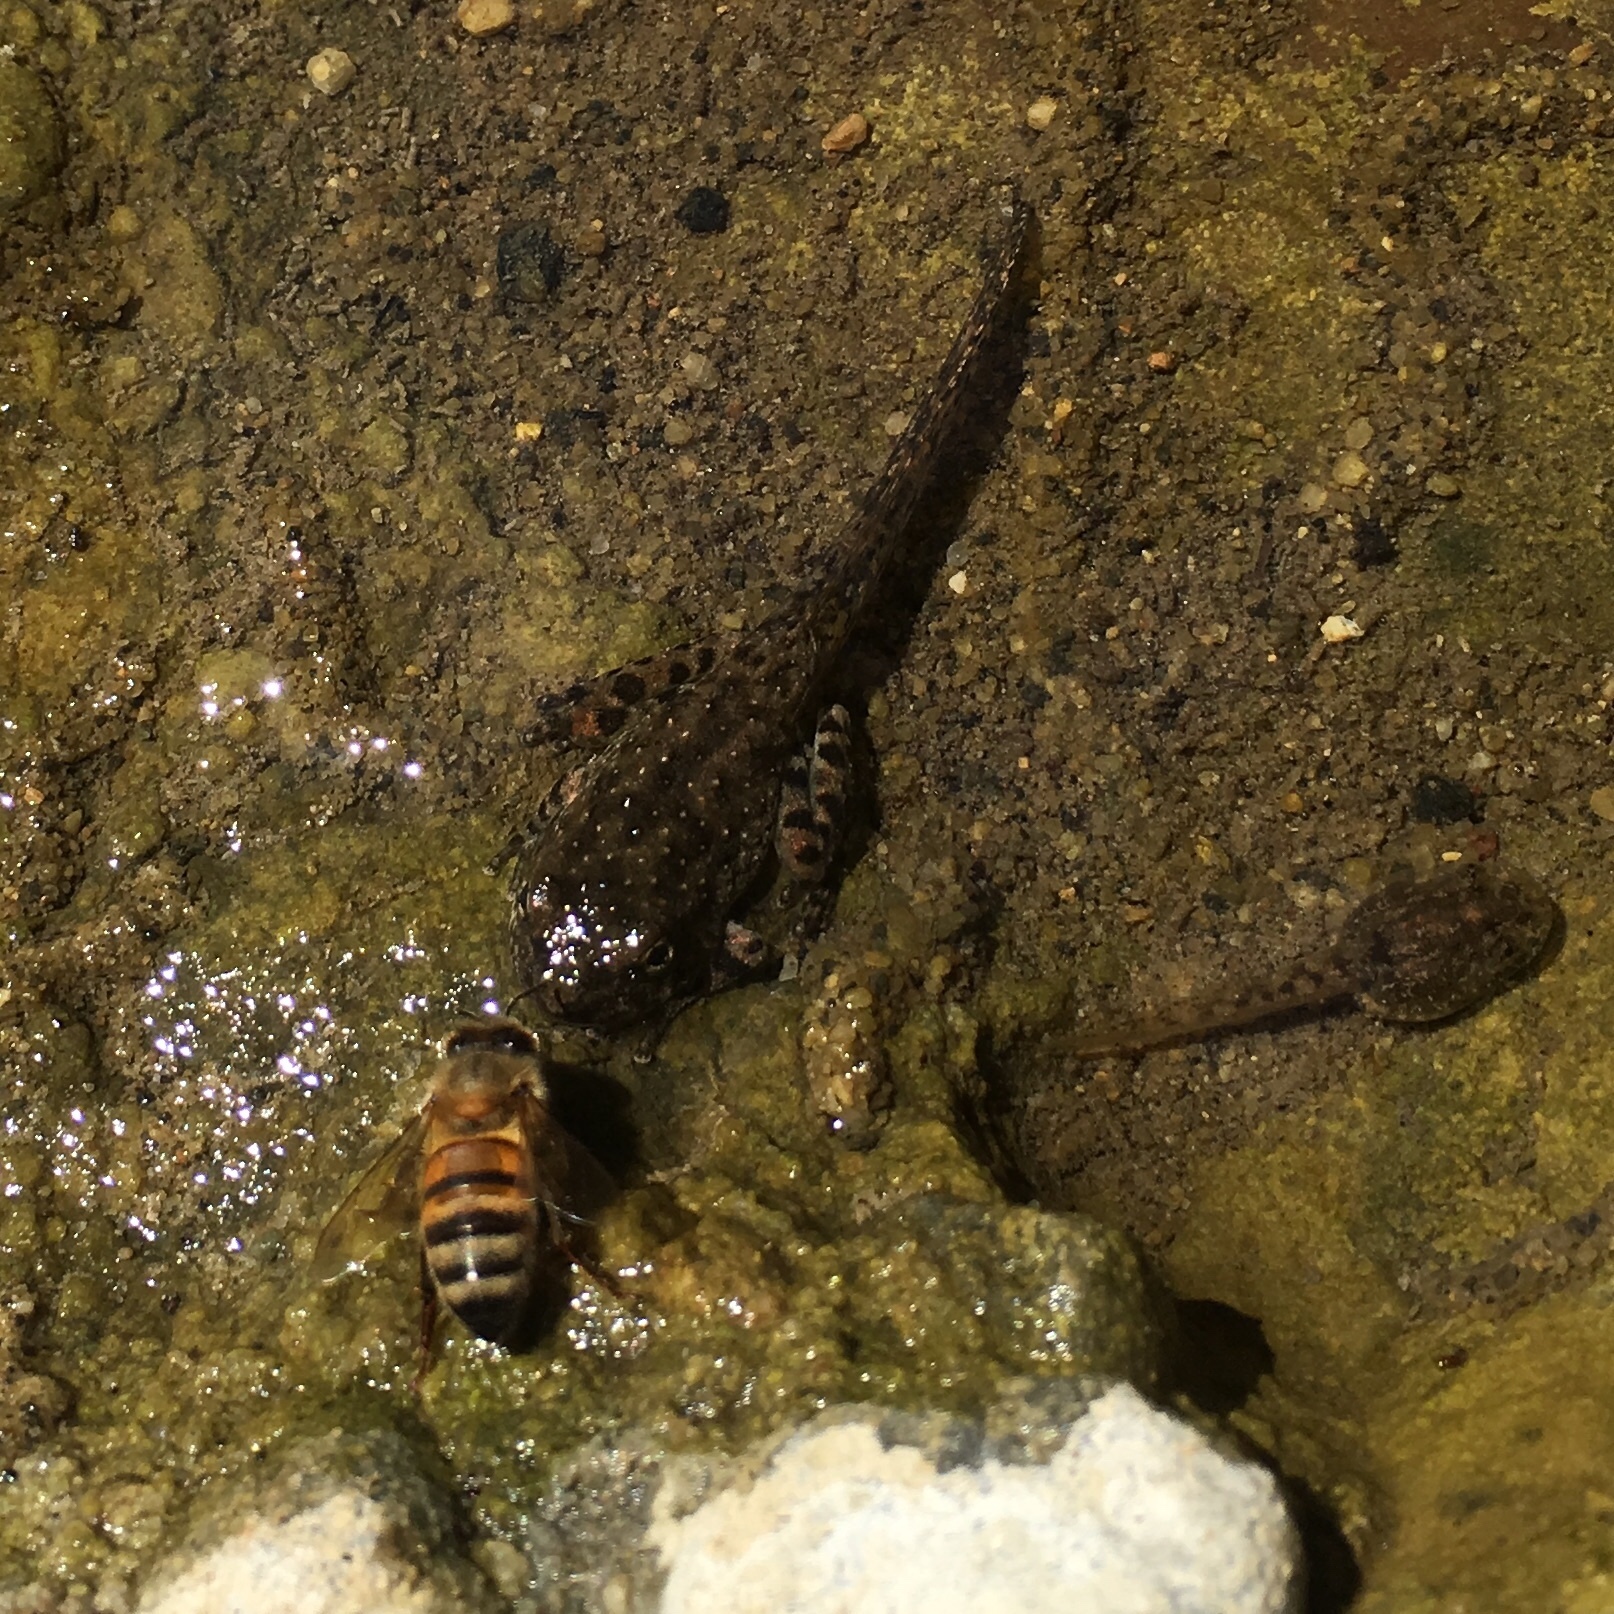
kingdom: Animalia
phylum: Chordata
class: Amphibia
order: Anura
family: Hylidae
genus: Pseudacris
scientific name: Pseudacris cadaverina
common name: California chorus frog
